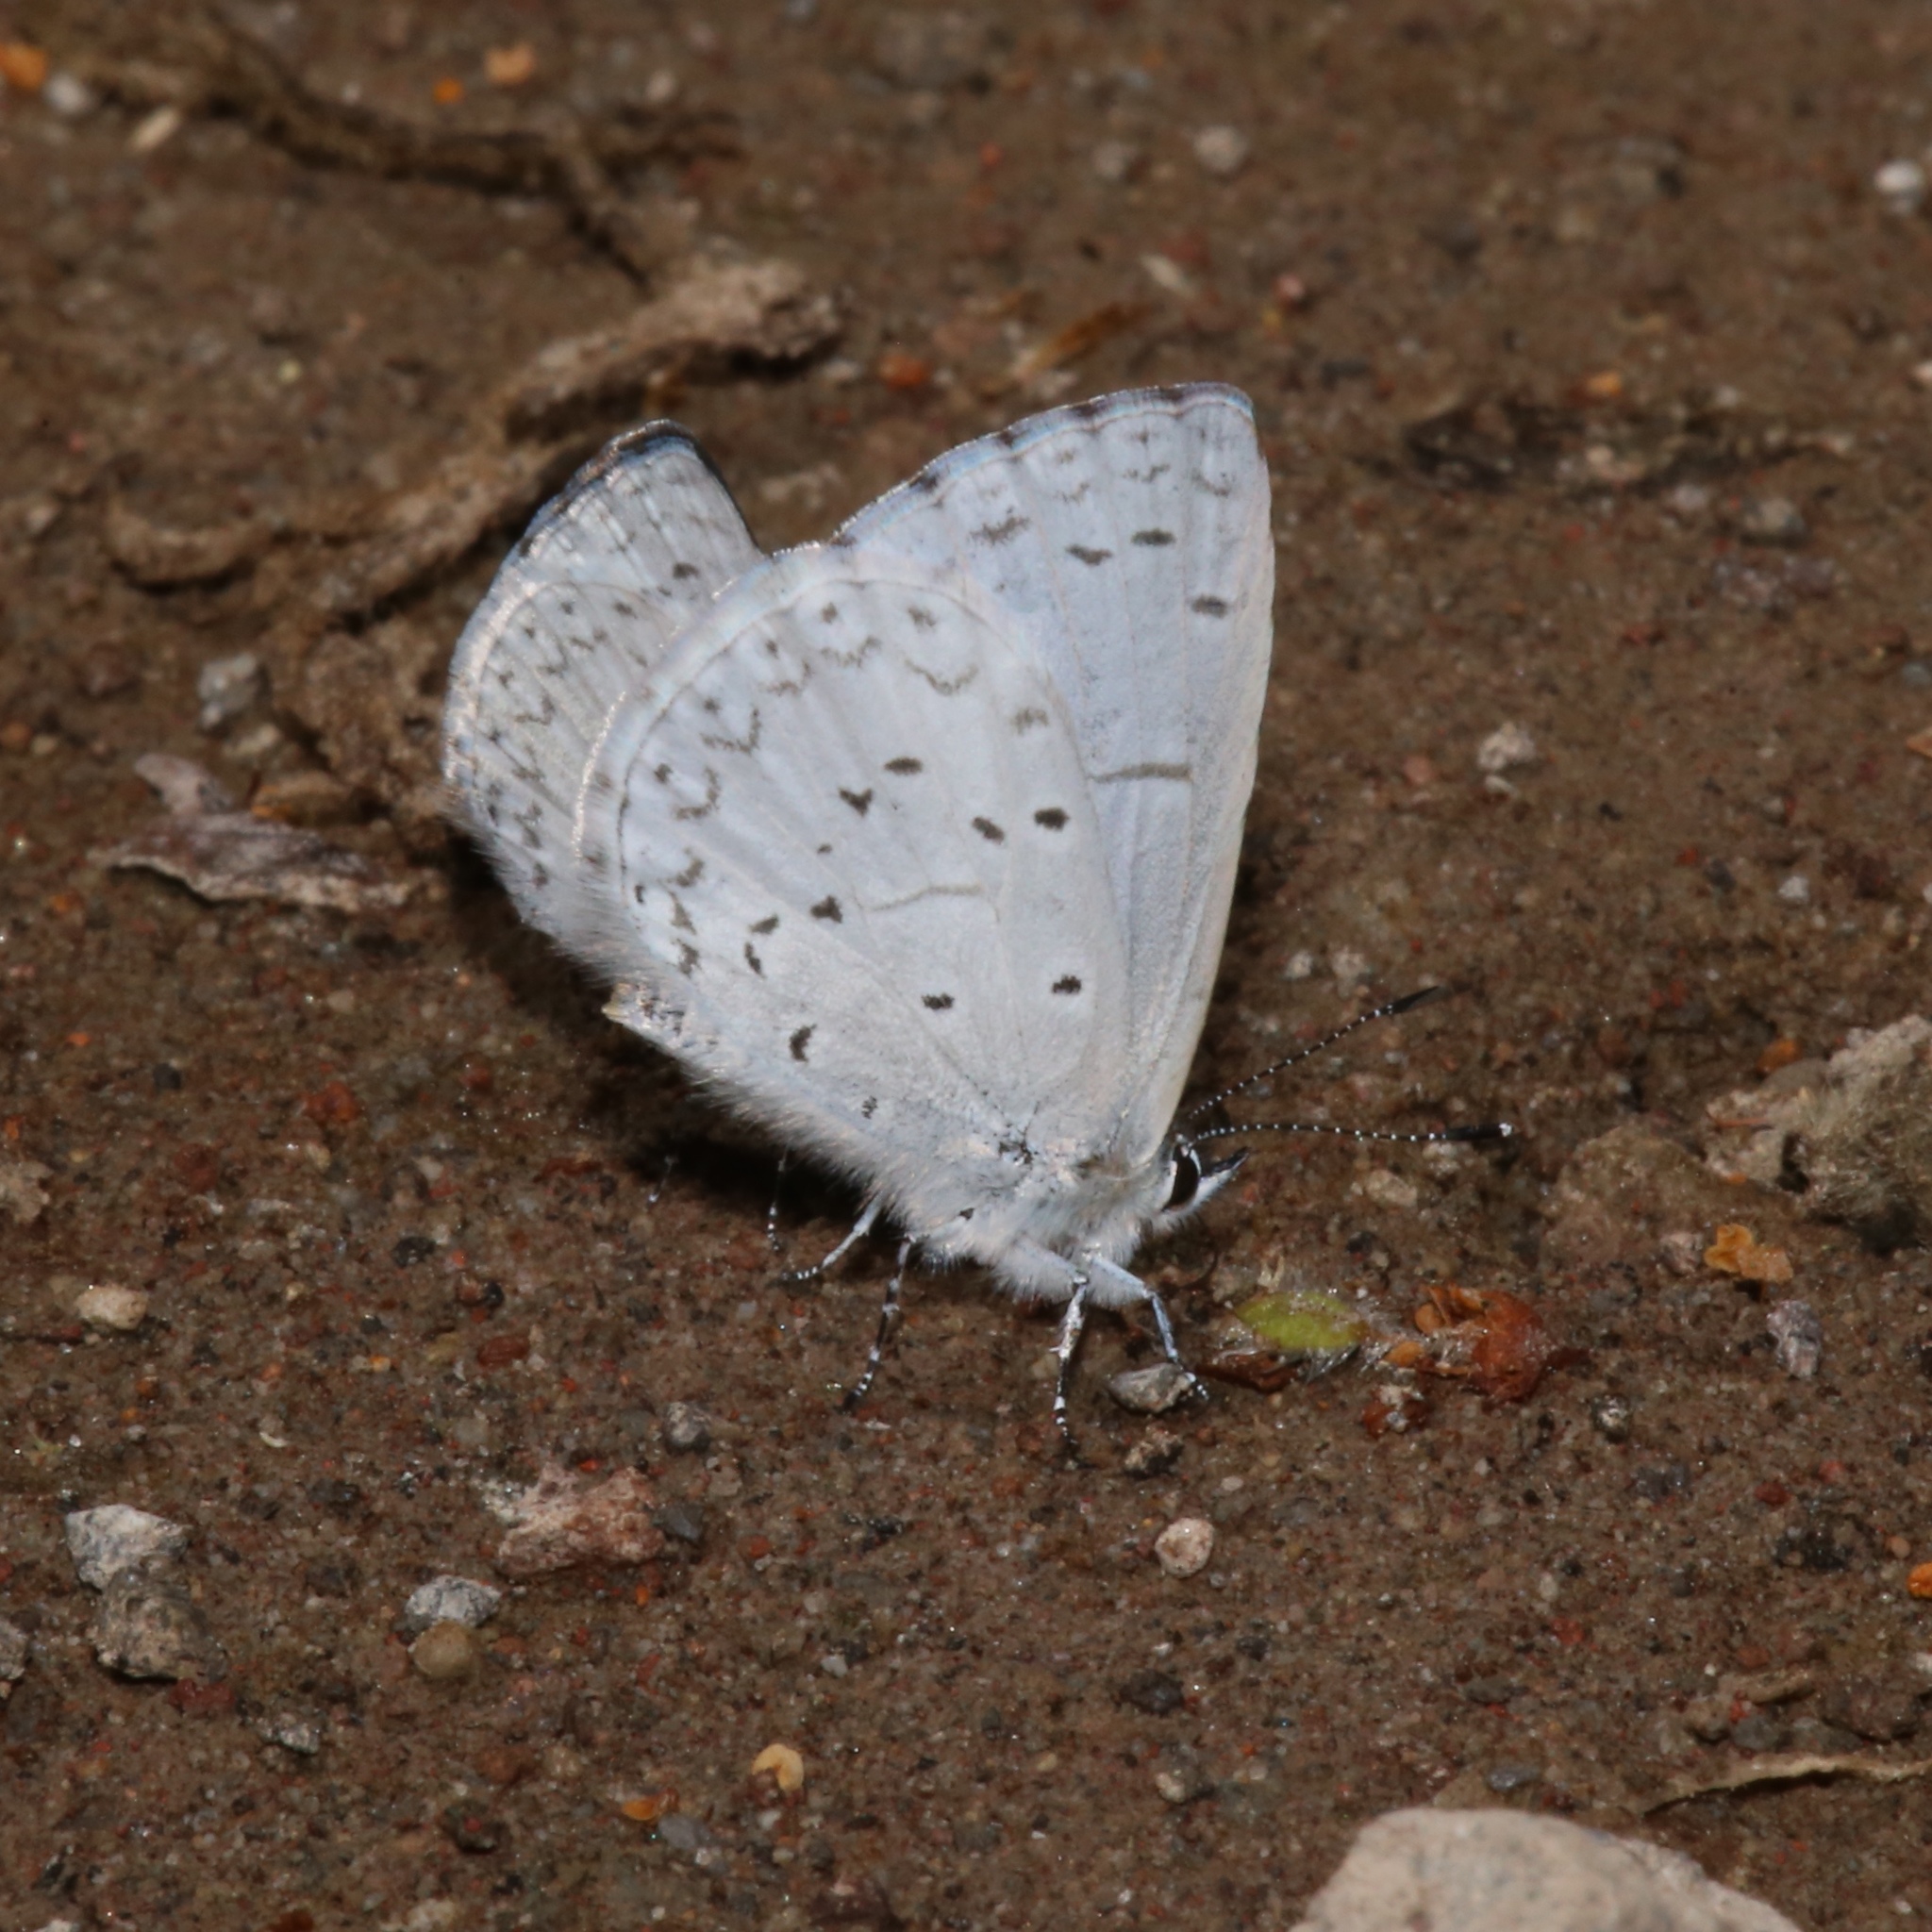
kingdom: Animalia
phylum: Arthropoda
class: Insecta
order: Lepidoptera
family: Lycaenidae
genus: Celastrina
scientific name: Celastrina ladon
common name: Spring azure
